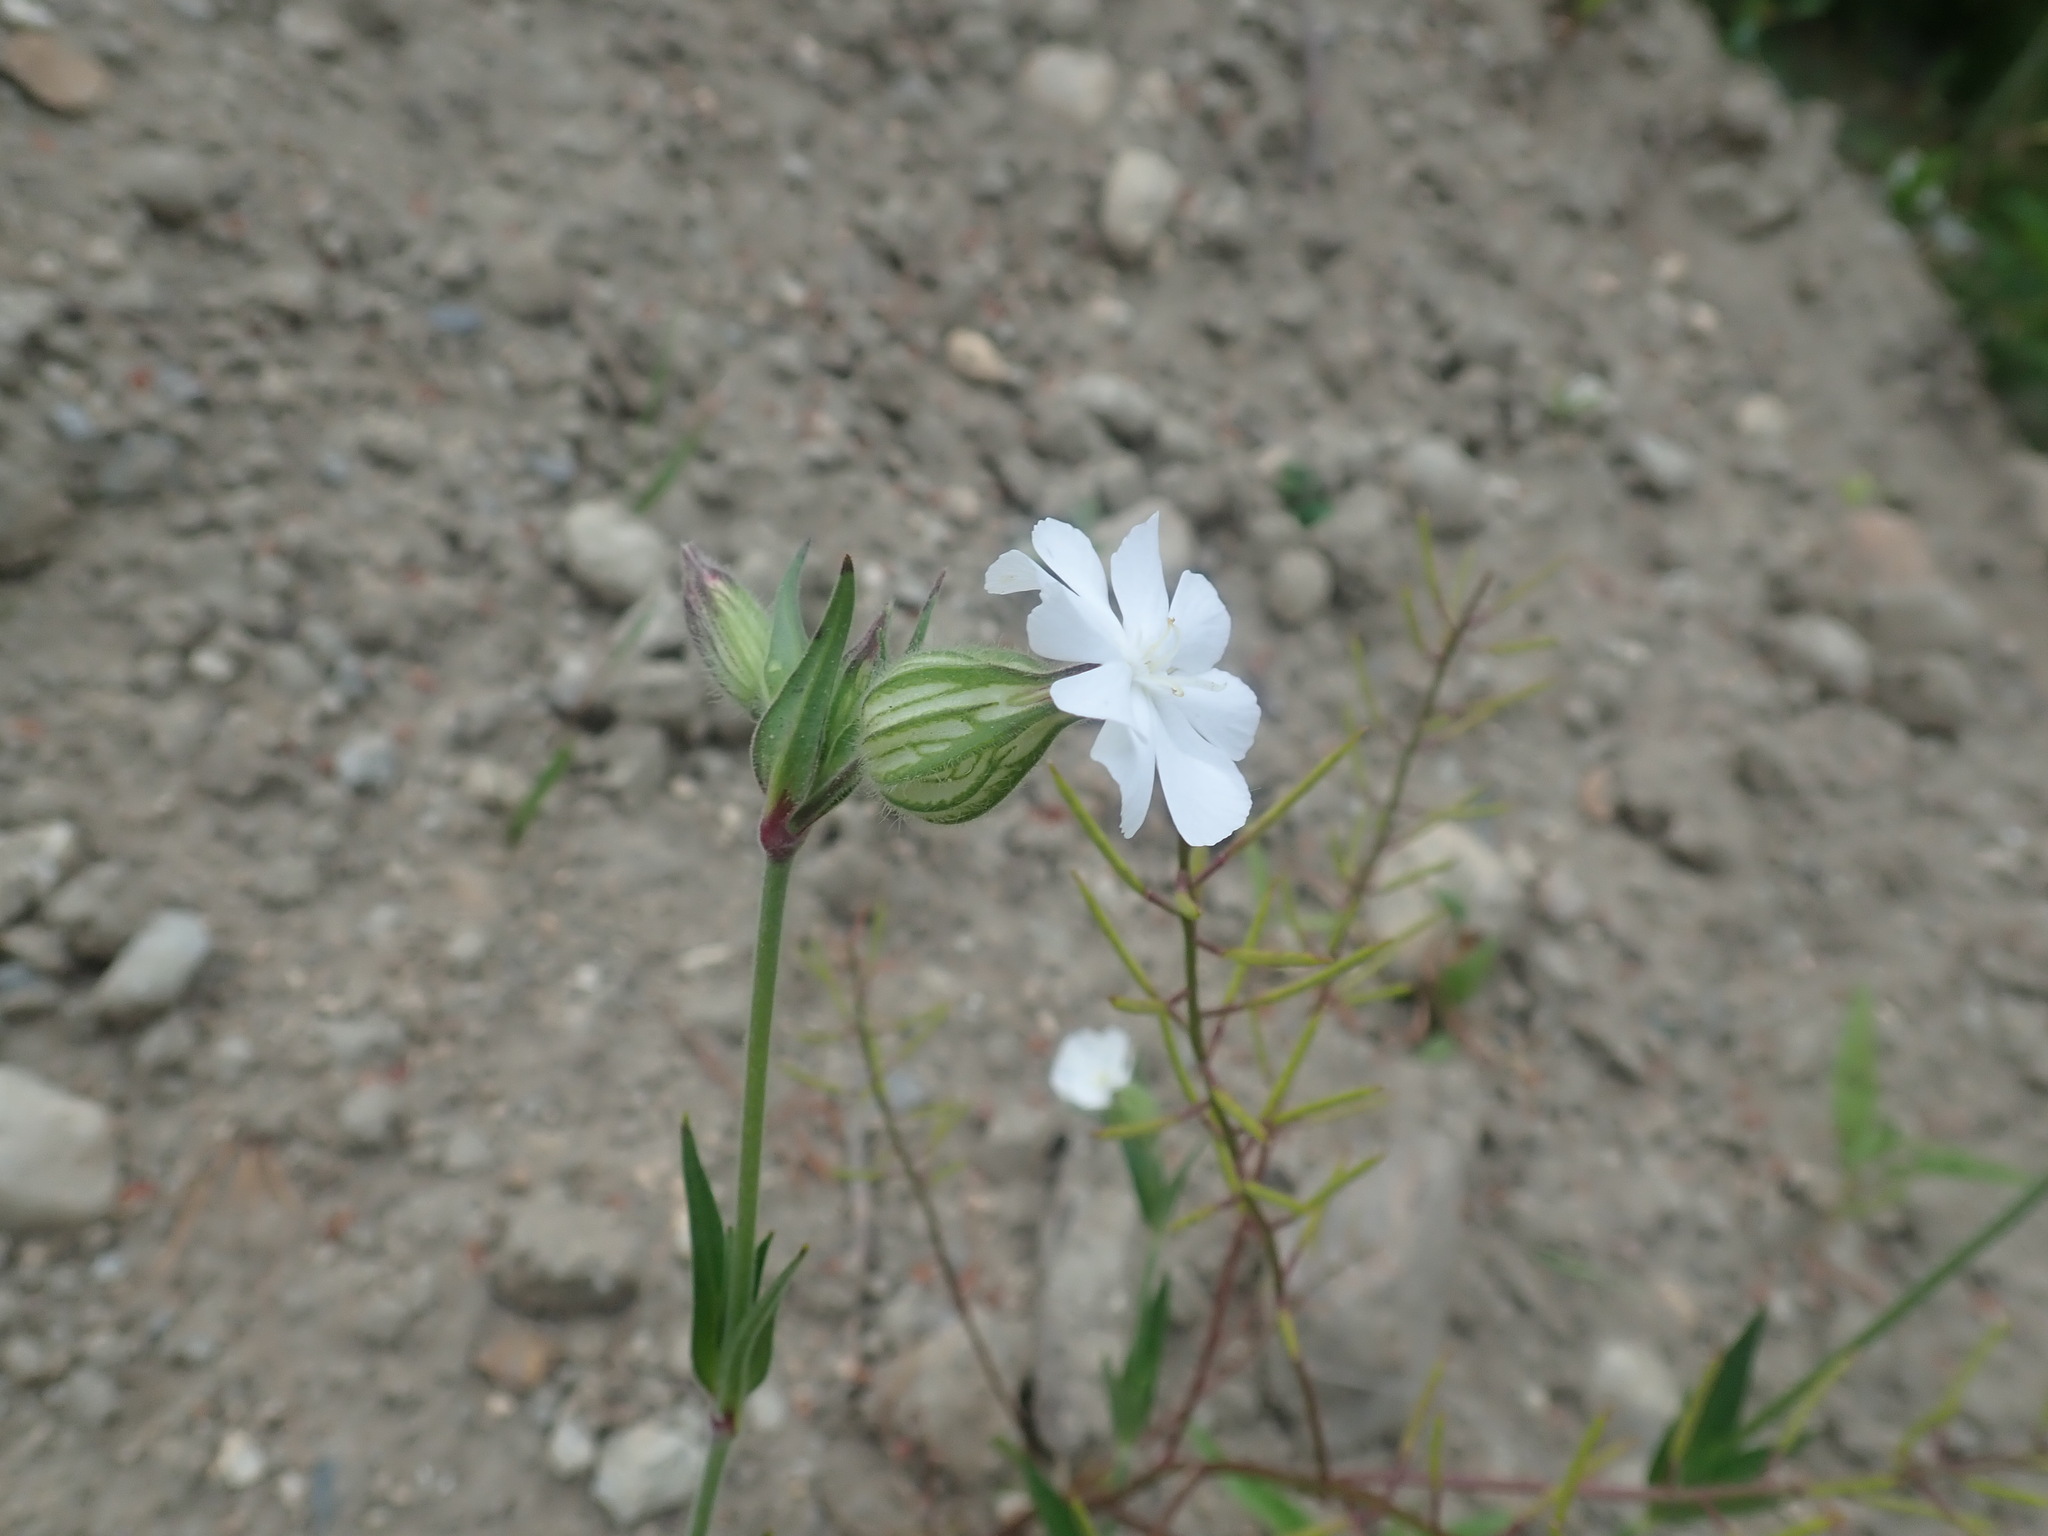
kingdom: Plantae
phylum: Tracheophyta
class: Magnoliopsida
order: Caryophyllales
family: Caryophyllaceae
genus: Silene
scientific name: Silene latifolia
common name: White campion
